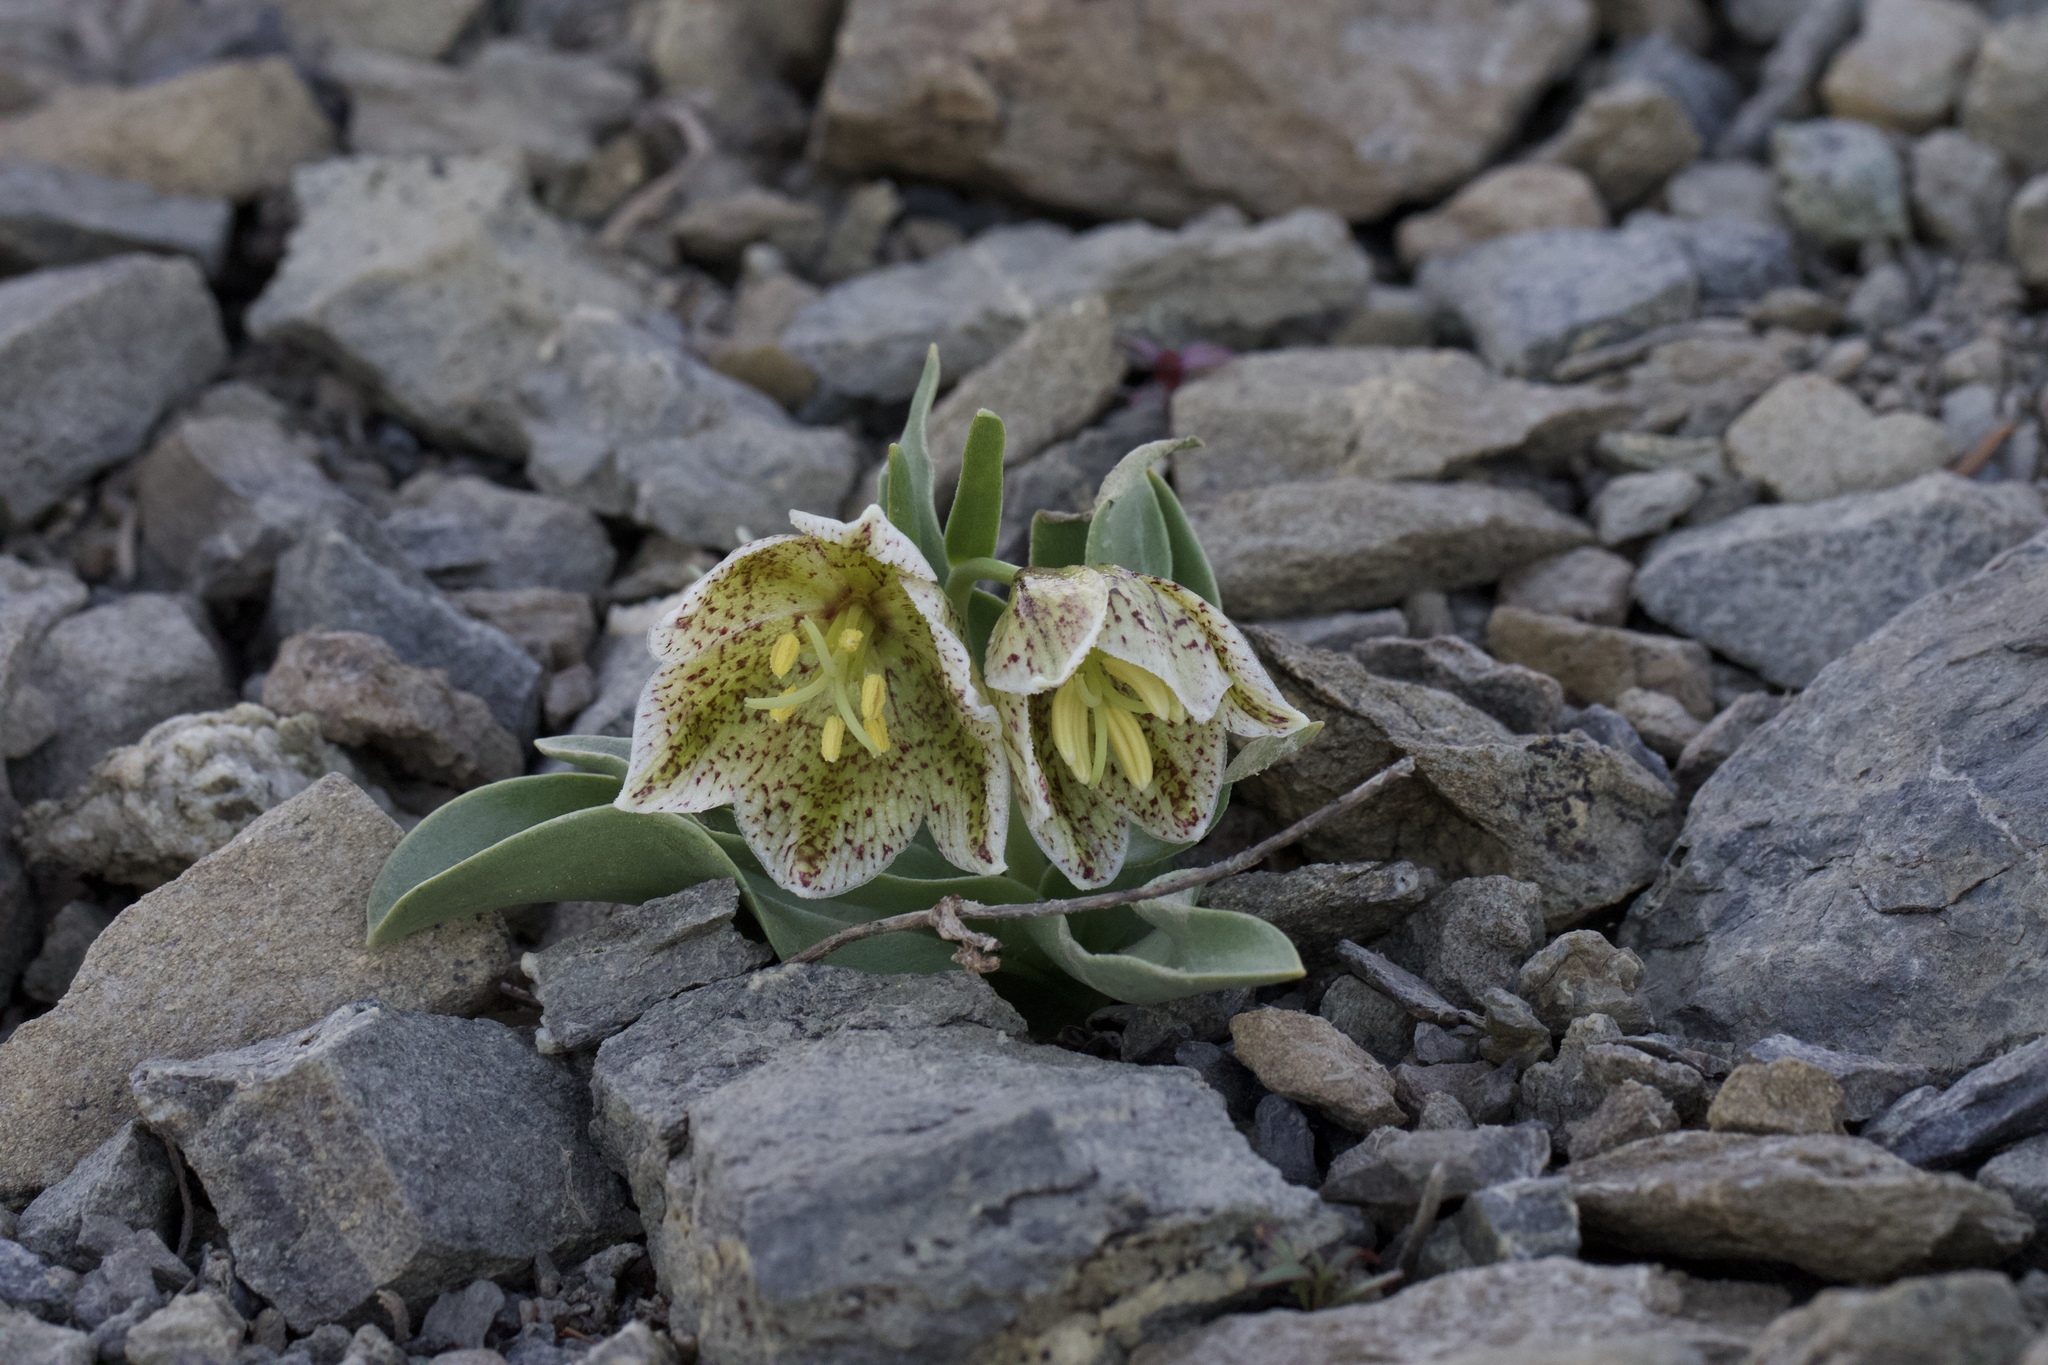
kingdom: Plantae
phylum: Tracheophyta
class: Liliopsida
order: Liliales
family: Liliaceae
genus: Fritillaria
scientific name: Fritillaria purdyi
